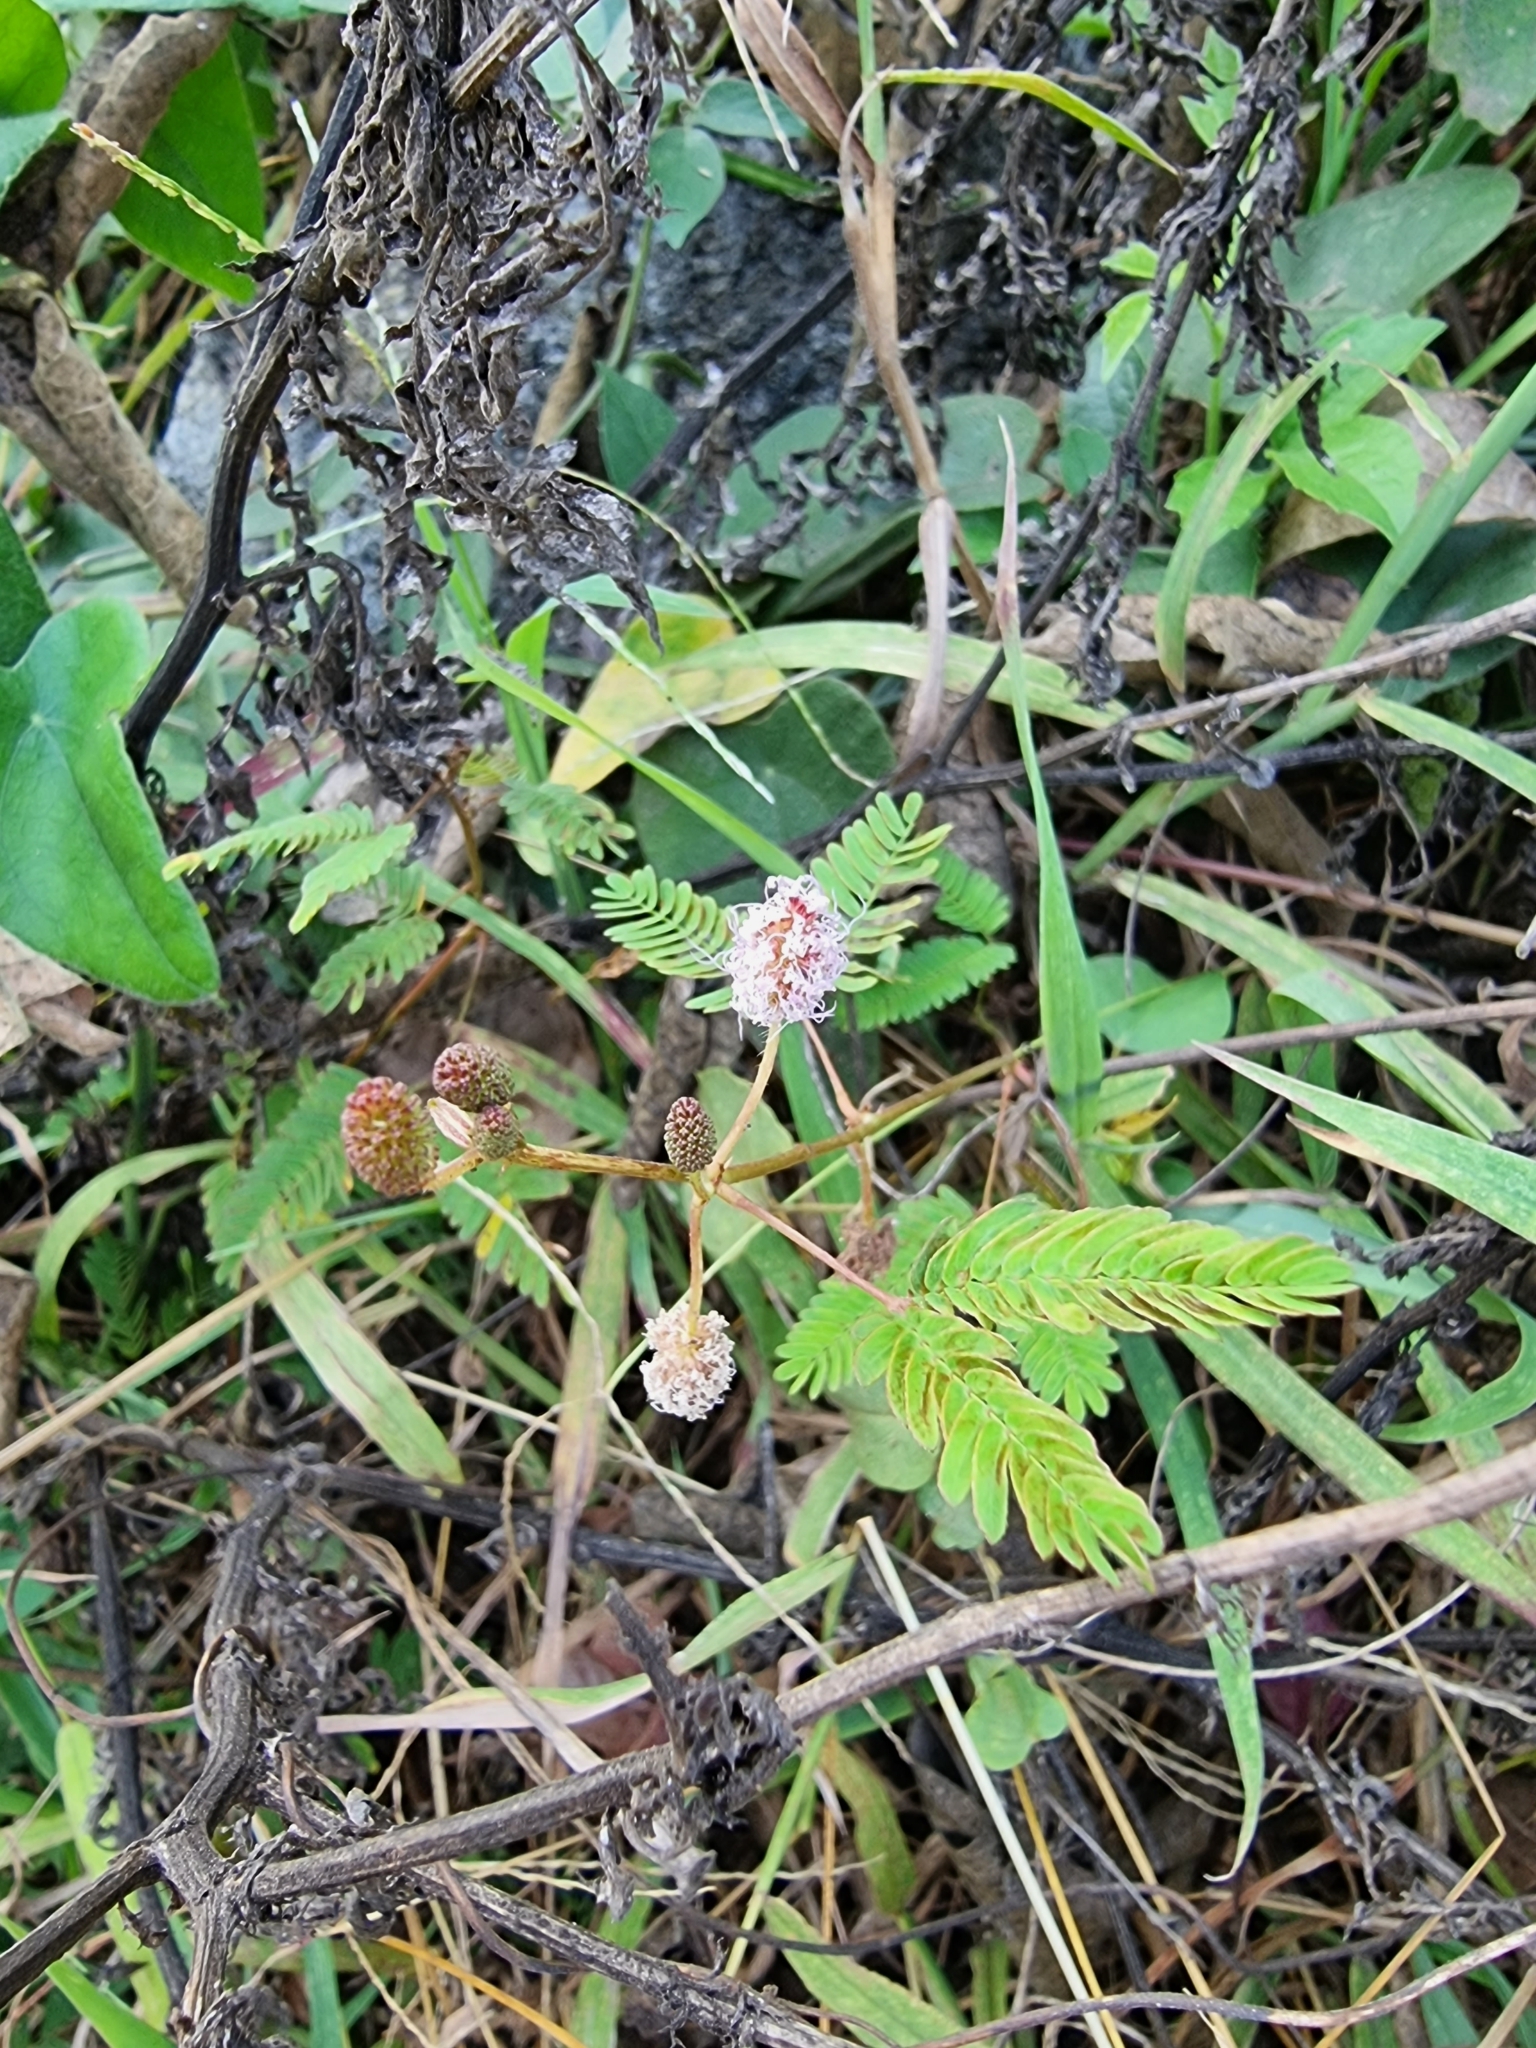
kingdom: Plantae
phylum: Tracheophyta
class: Magnoliopsida
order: Fabales
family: Fabaceae
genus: Mimosa
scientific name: Mimosa pudica
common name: Sensitive plant
